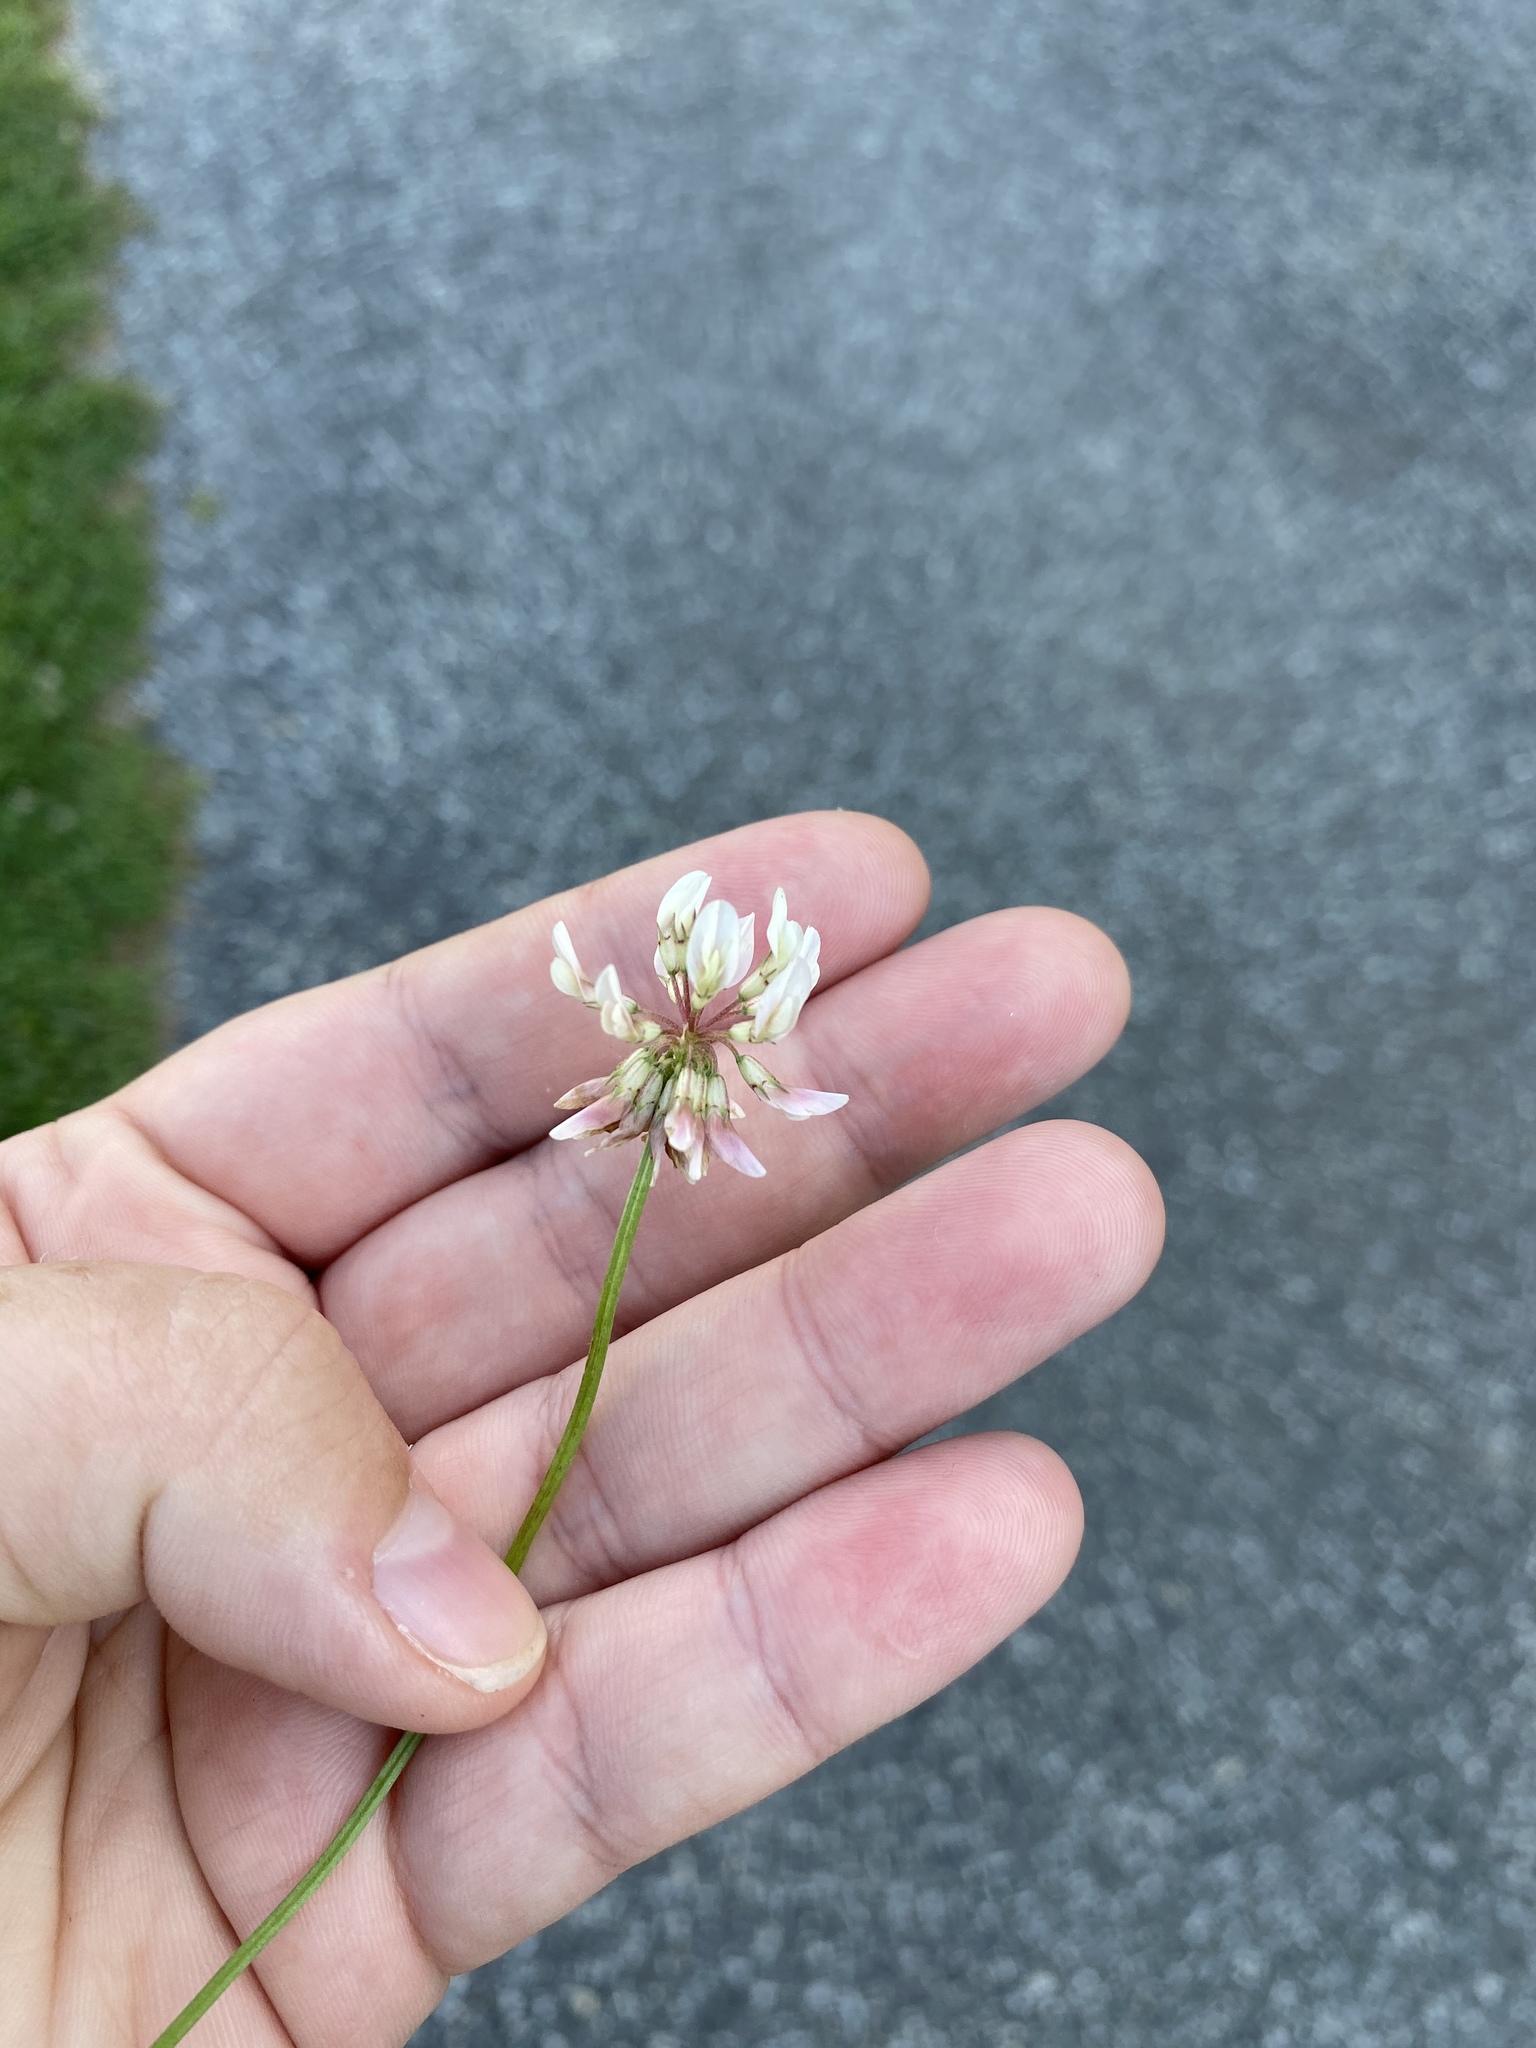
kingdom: Plantae
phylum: Tracheophyta
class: Magnoliopsida
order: Fabales
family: Fabaceae
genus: Trifolium
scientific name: Trifolium repens
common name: White clover
